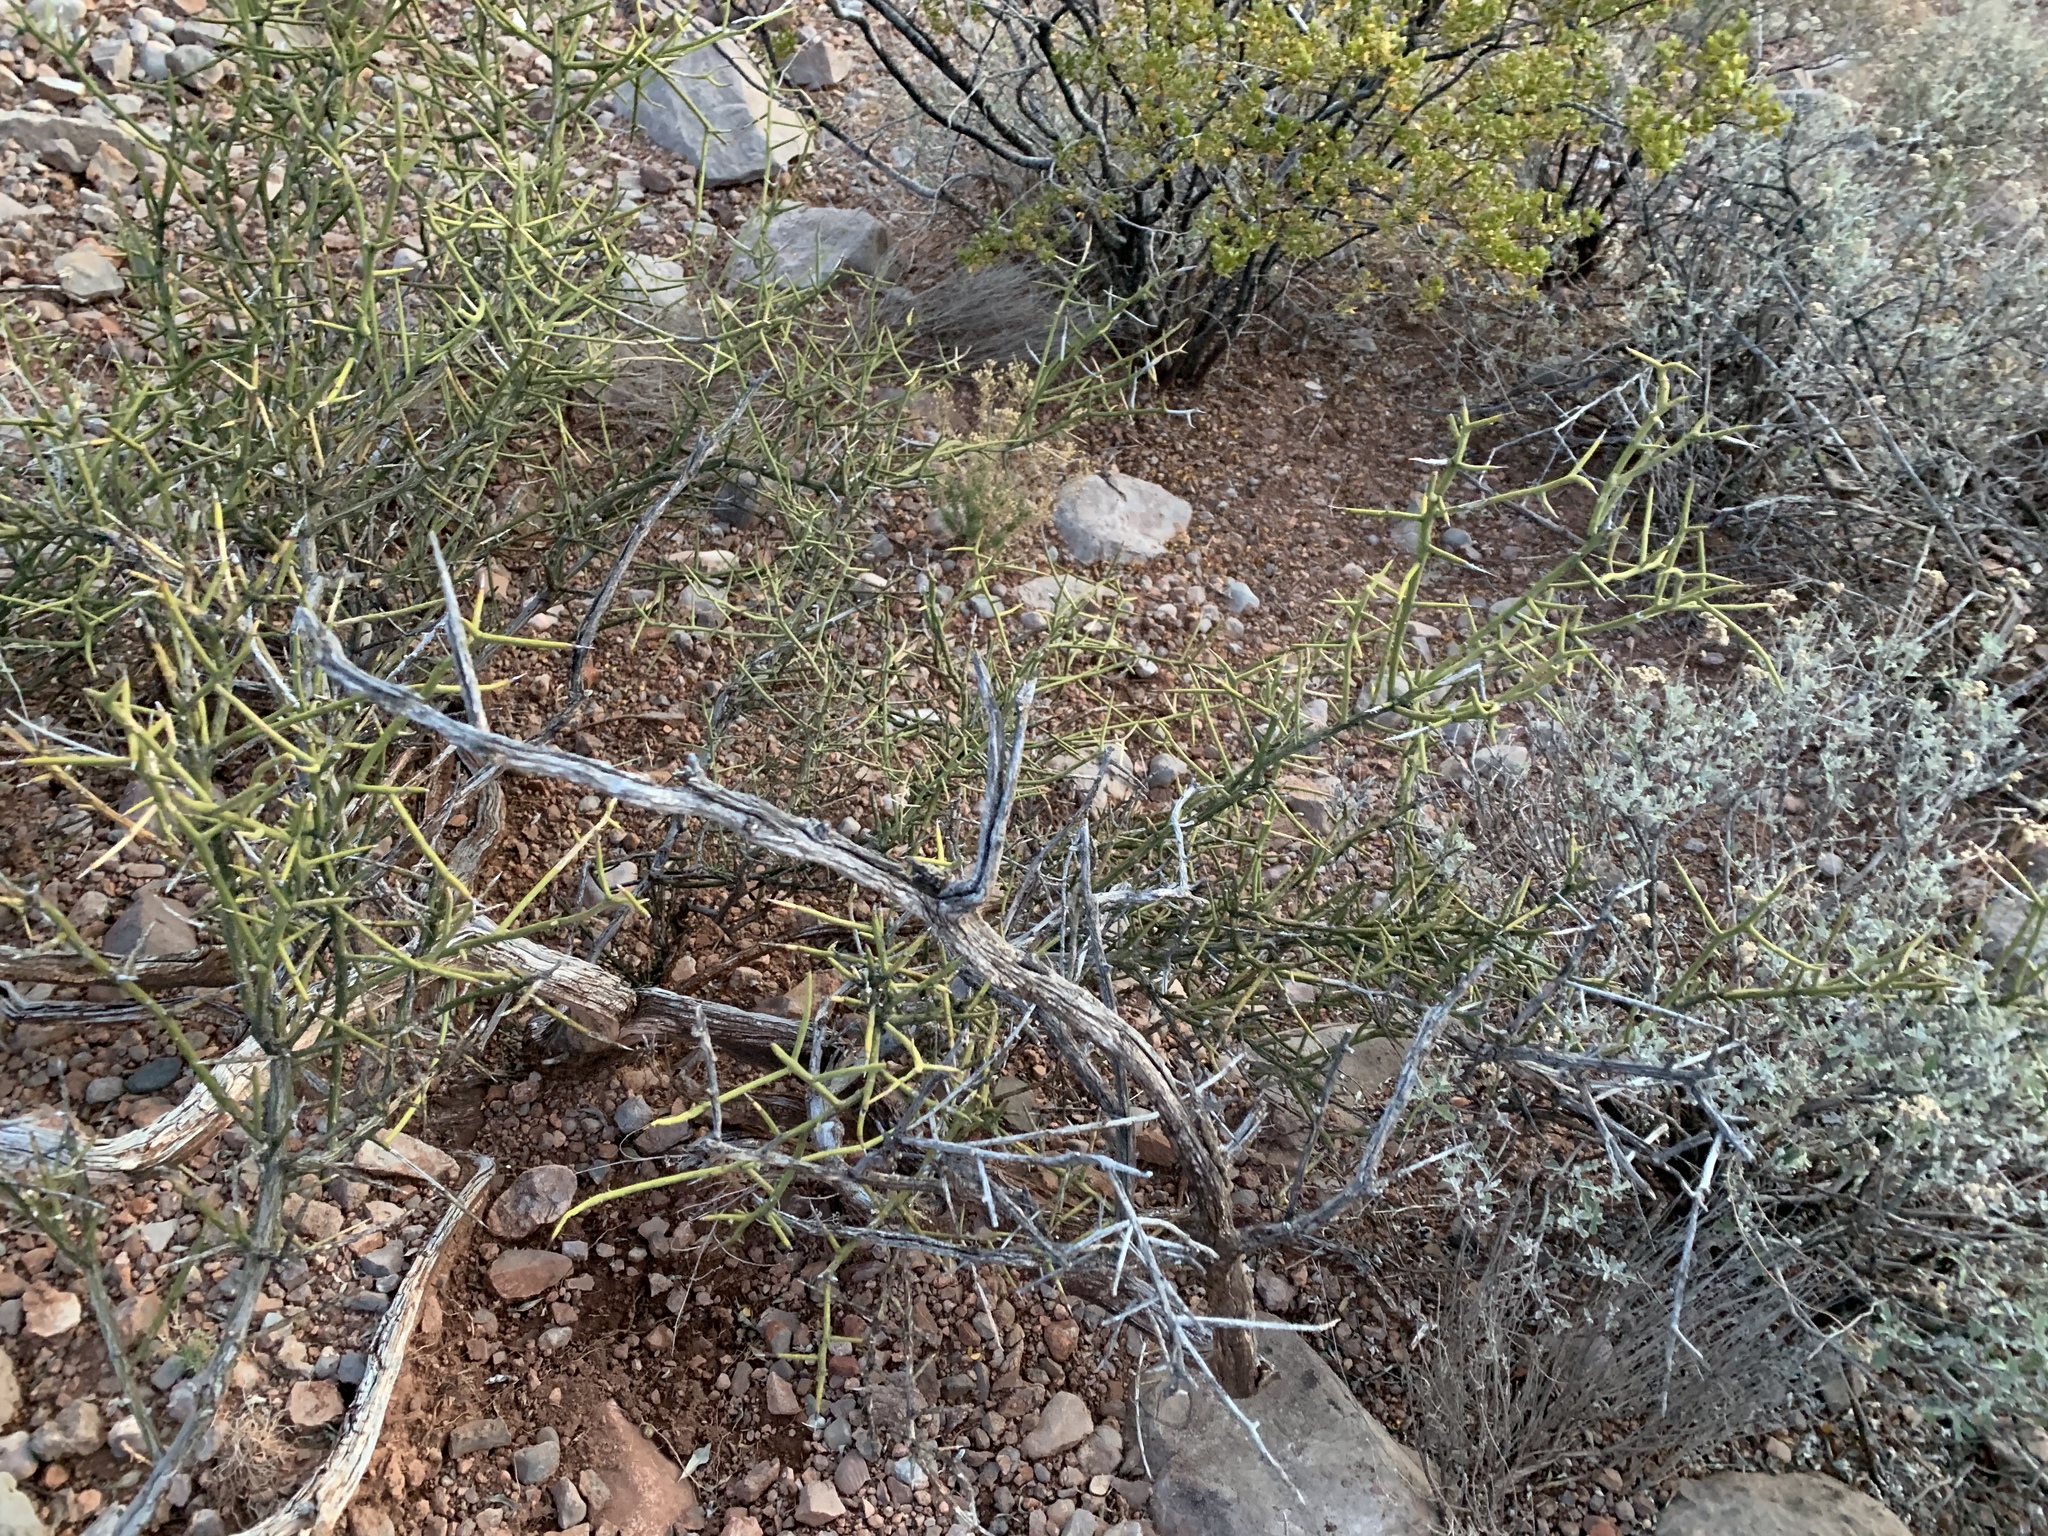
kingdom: Plantae
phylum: Tracheophyta
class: Magnoliopsida
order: Brassicales
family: Koeberliniaceae
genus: Koeberlinia
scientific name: Koeberlinia spinosa
